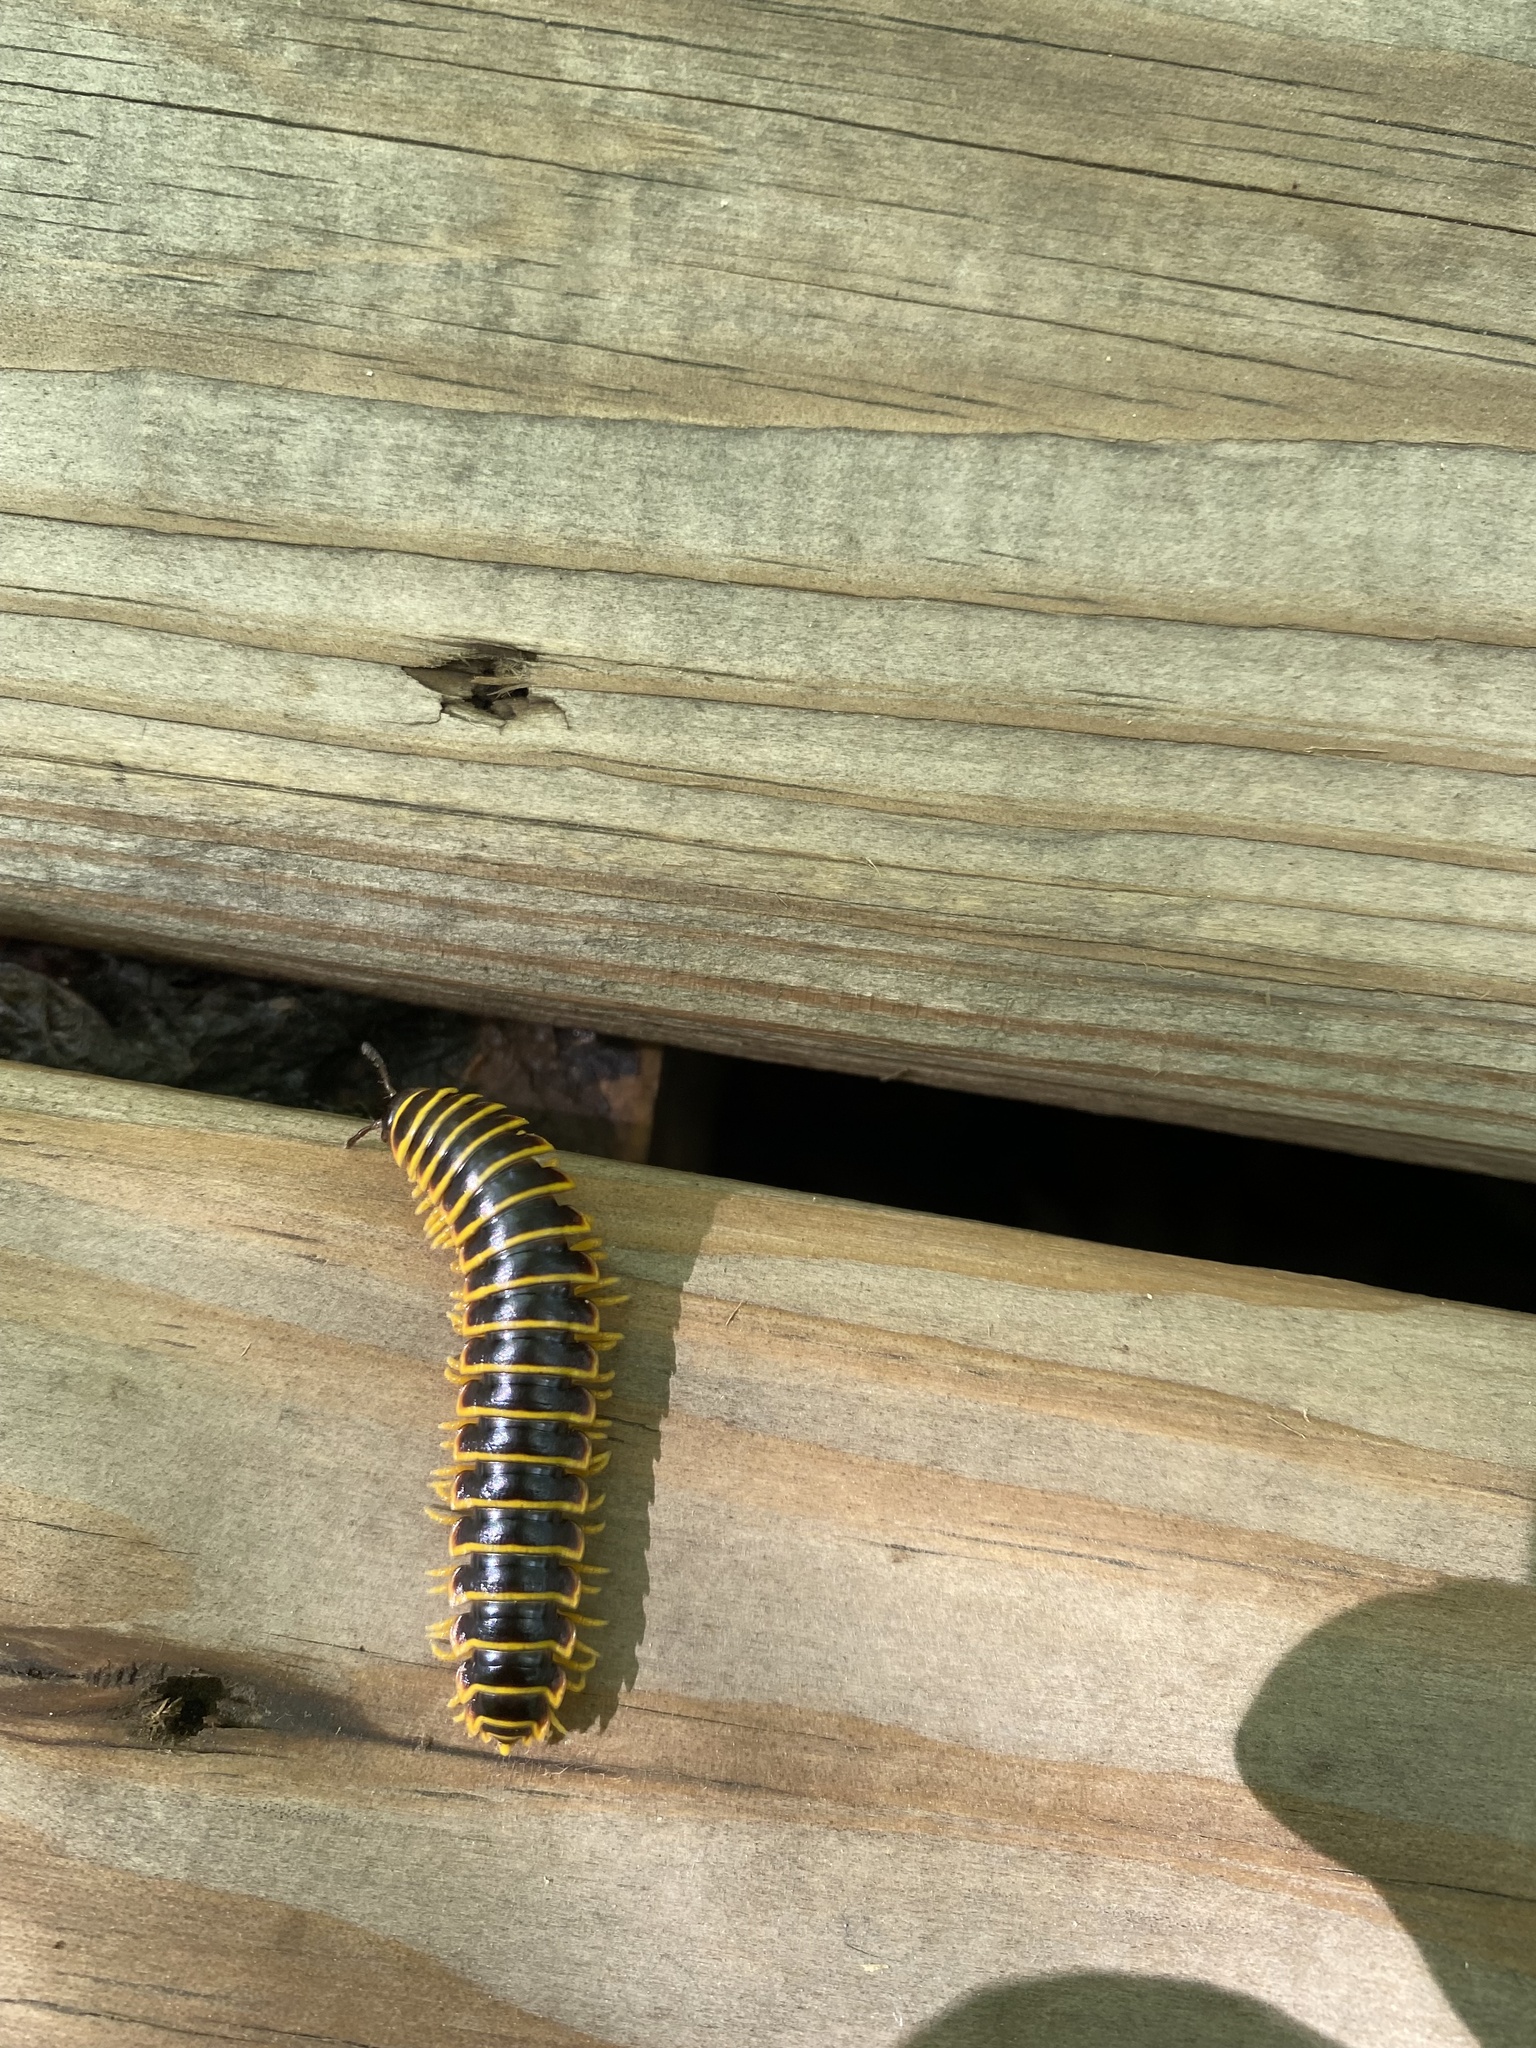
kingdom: Animalia
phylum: Arthropoda
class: Diplopoda
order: Polydesmida
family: Xystodesmidae
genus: Apheloria
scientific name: Apheloria virginiensis
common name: Black-and-gold flat millipede
